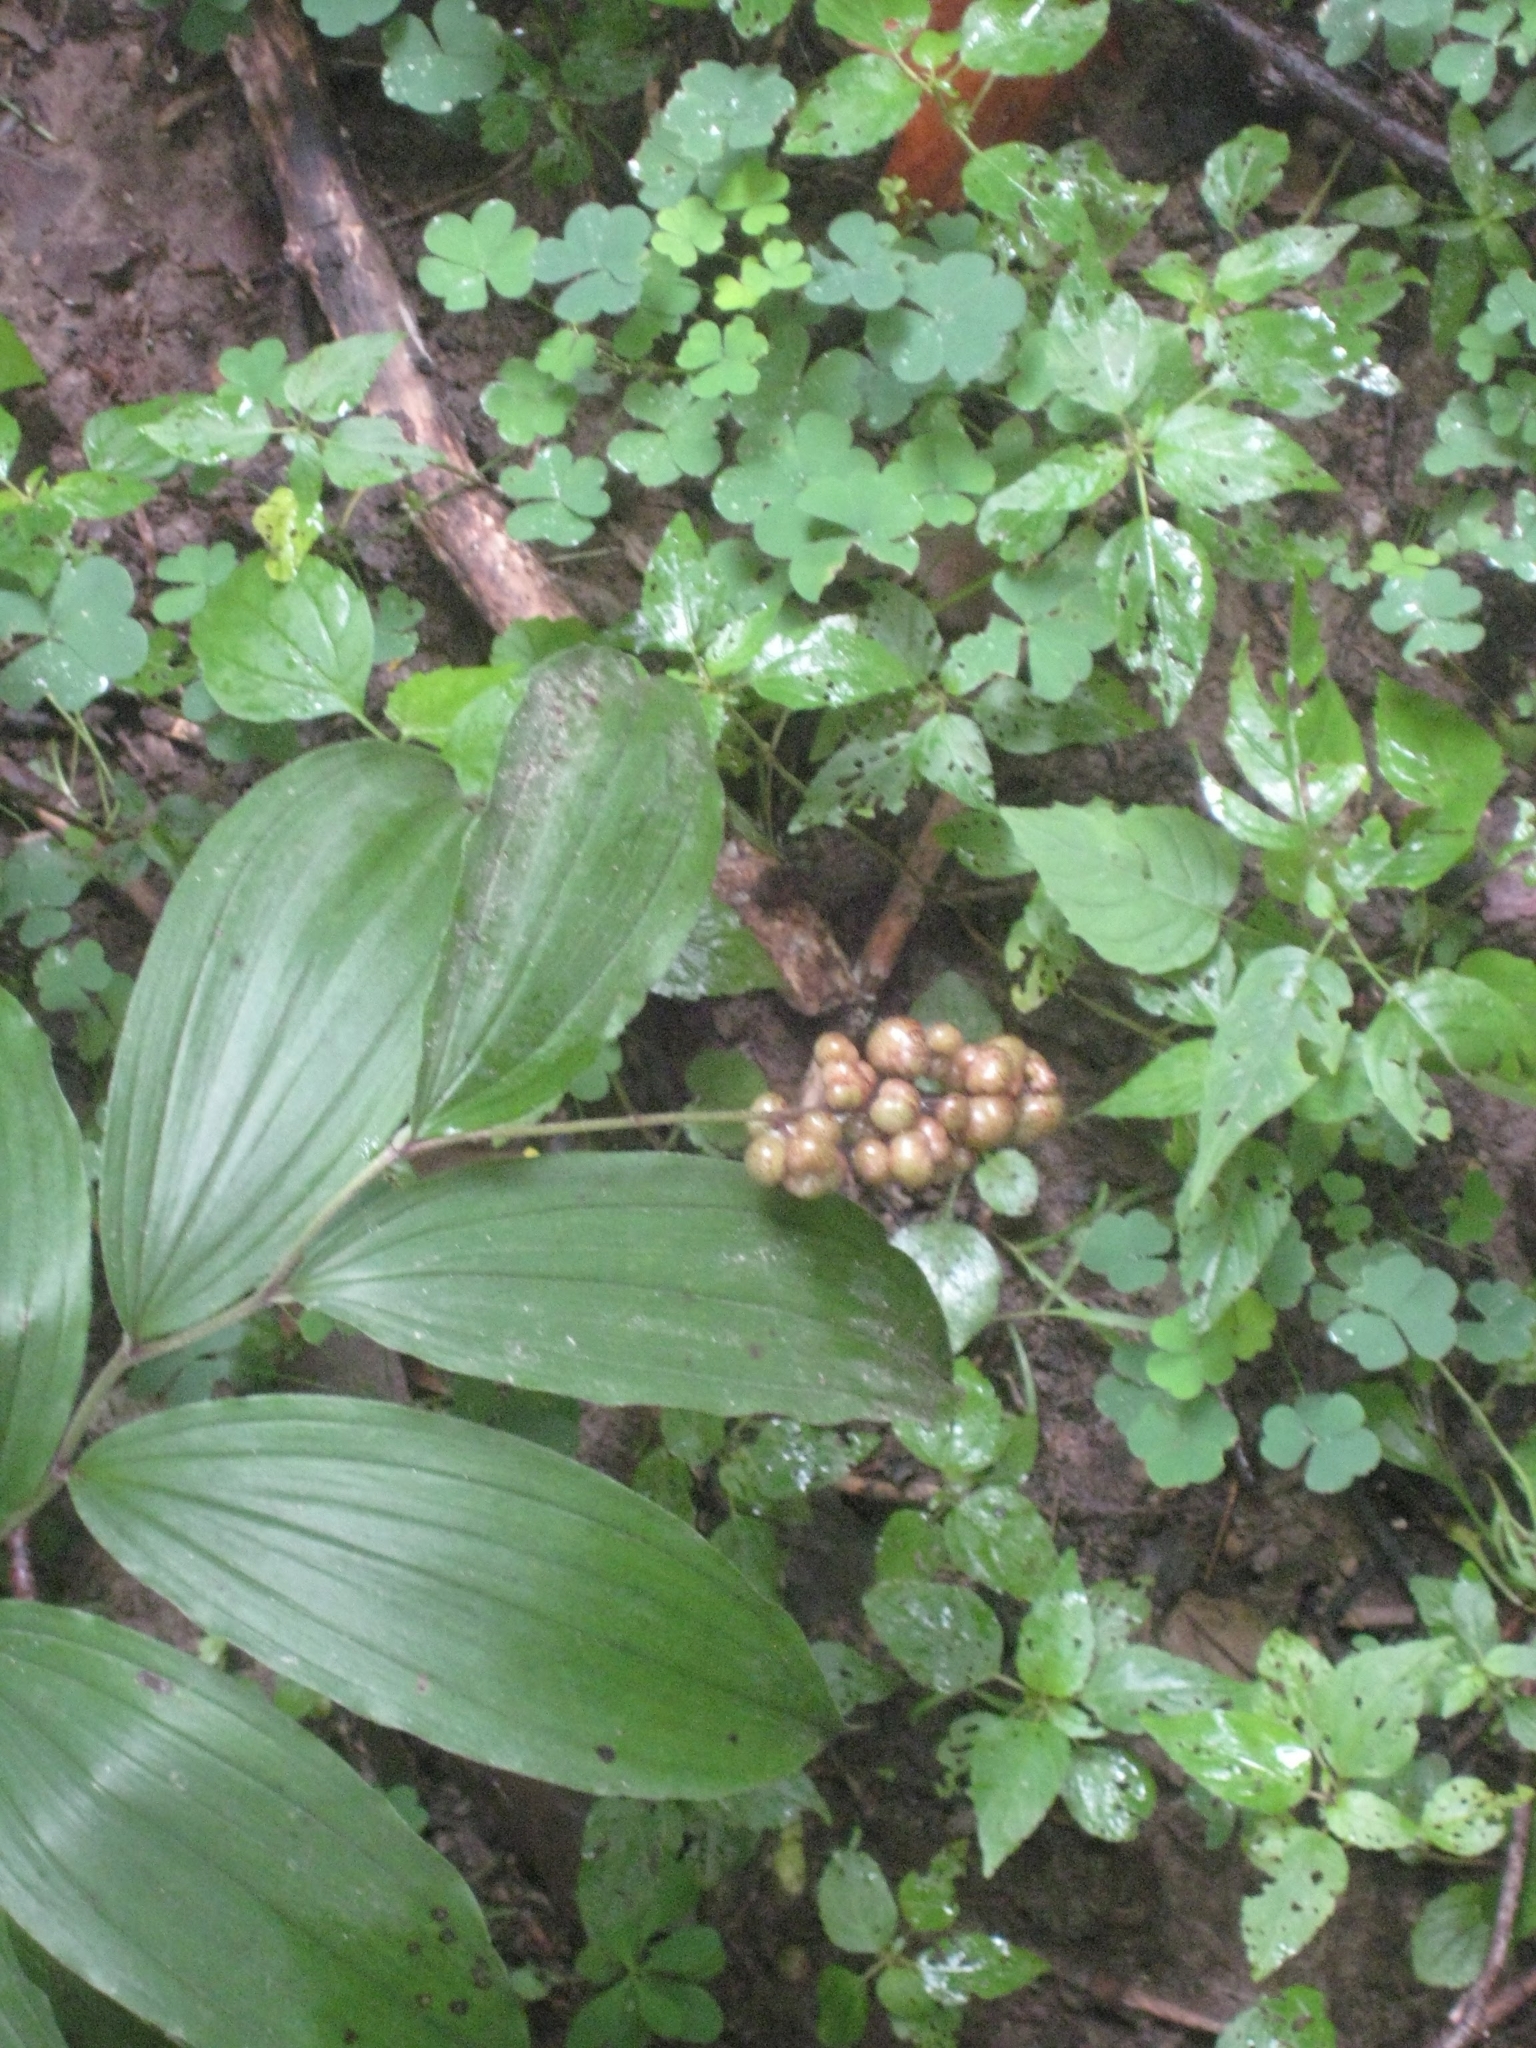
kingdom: Plantae
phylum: Tracheophyta
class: Liliopsida
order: Asparagales
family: Asparagaceae
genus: Maianthemum
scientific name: Maianthemum racemosum
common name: False spikenard
